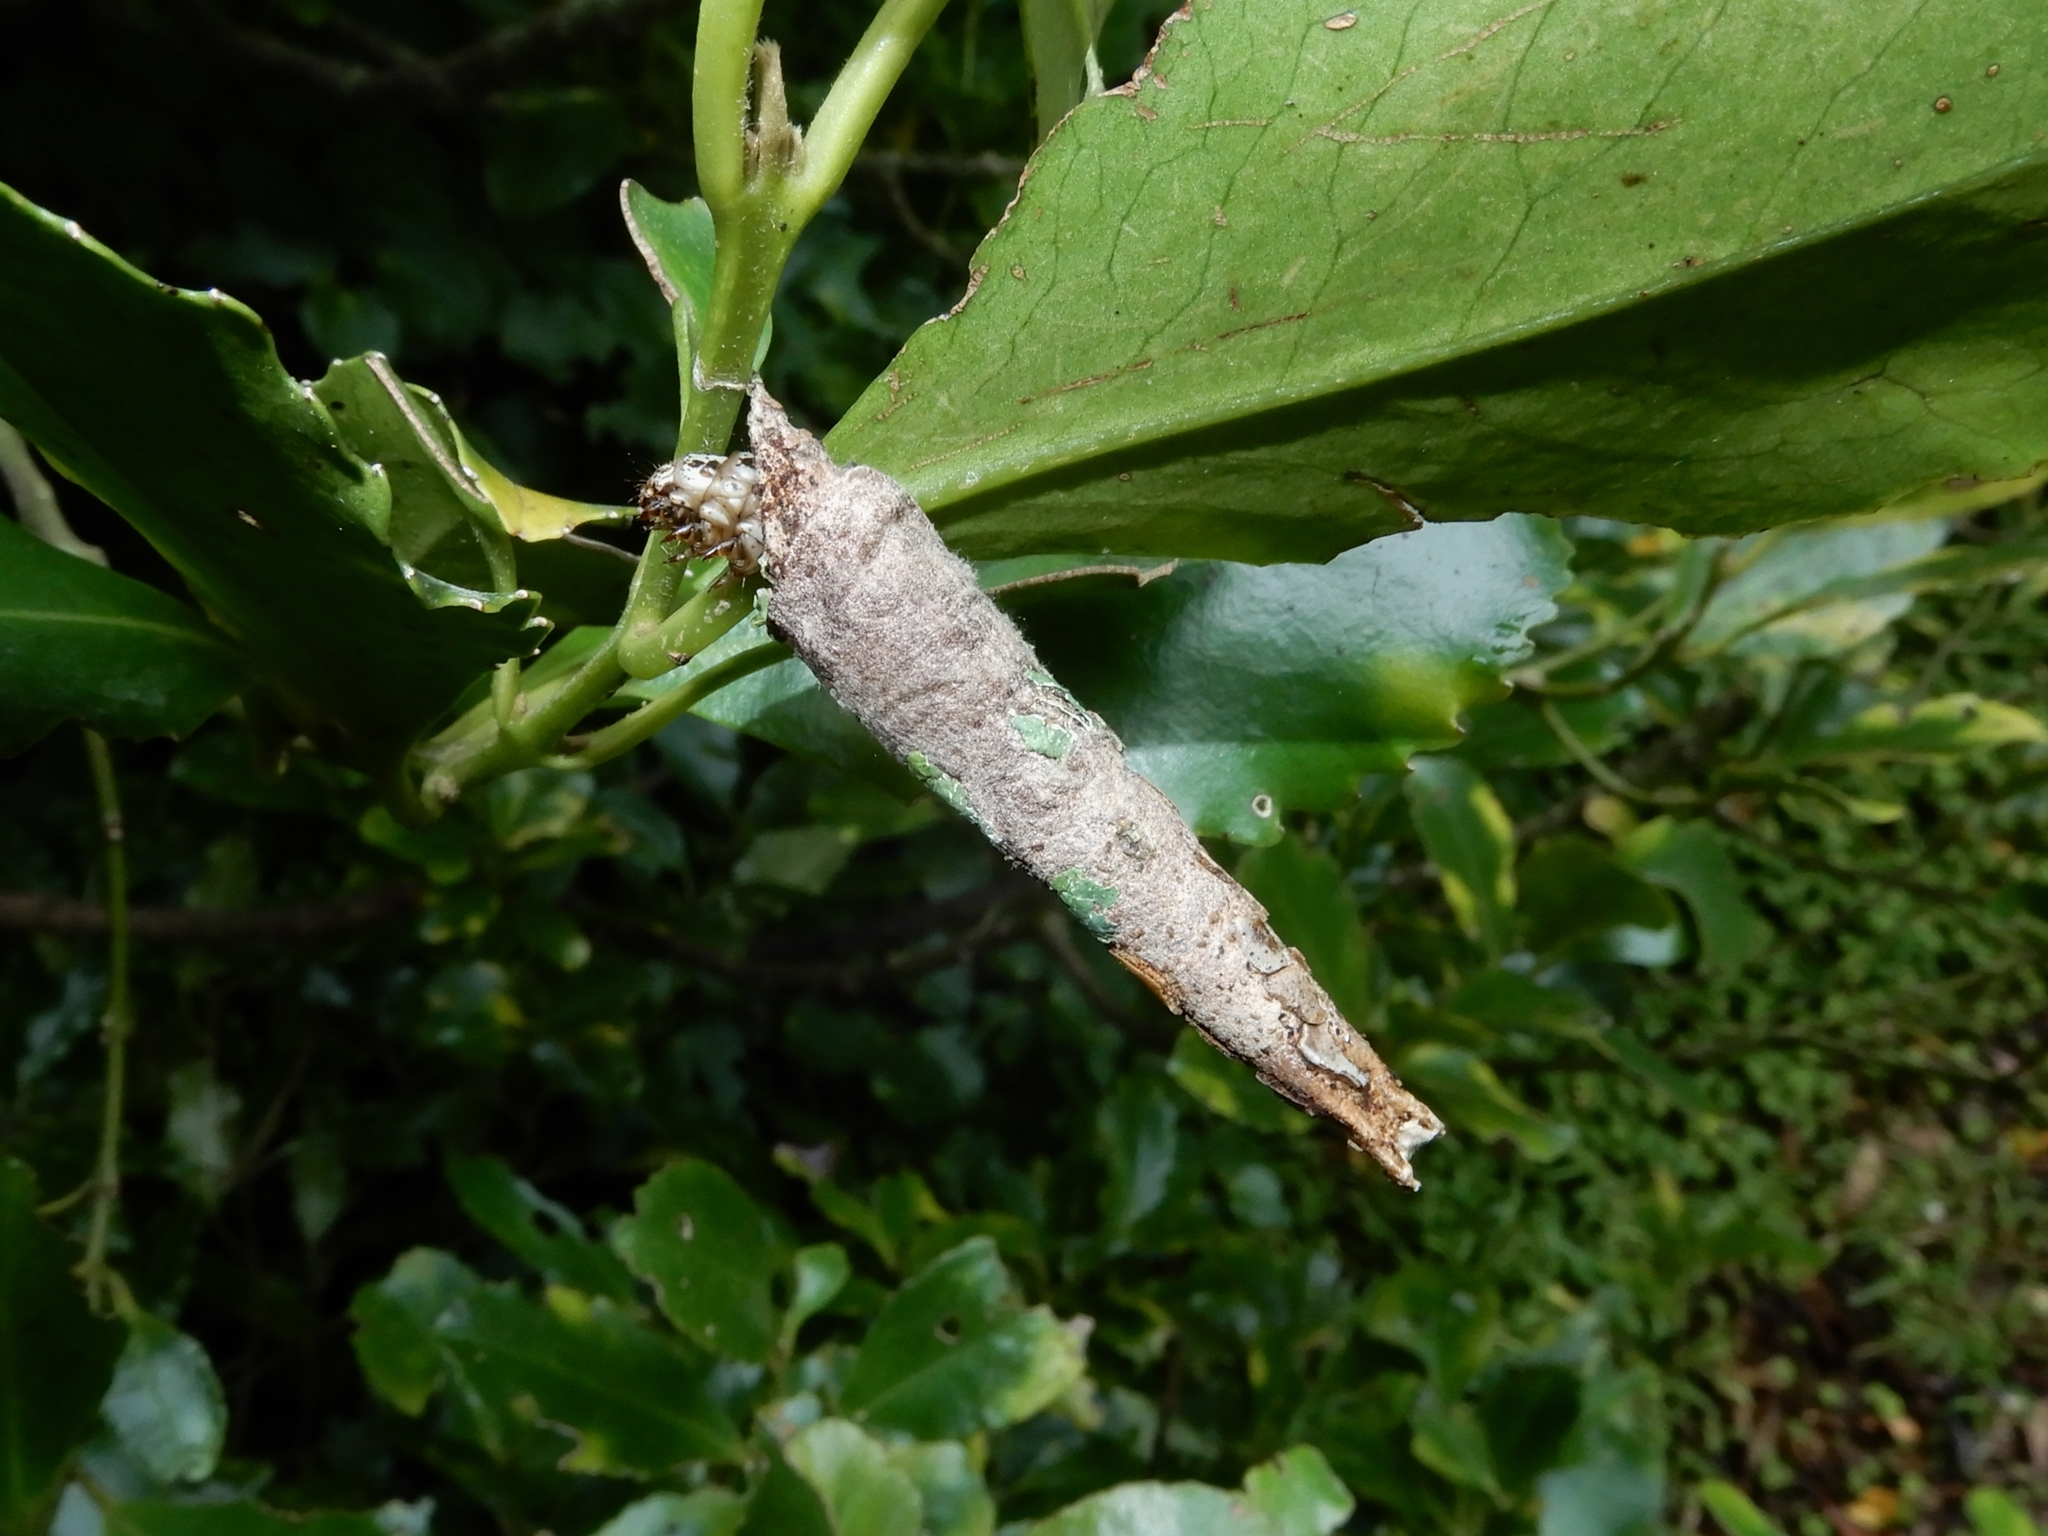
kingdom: Animalia
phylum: Arthropoda
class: Insecta
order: Lepidoptera
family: Psychidae
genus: Liothula
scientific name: Liothula omnivora
